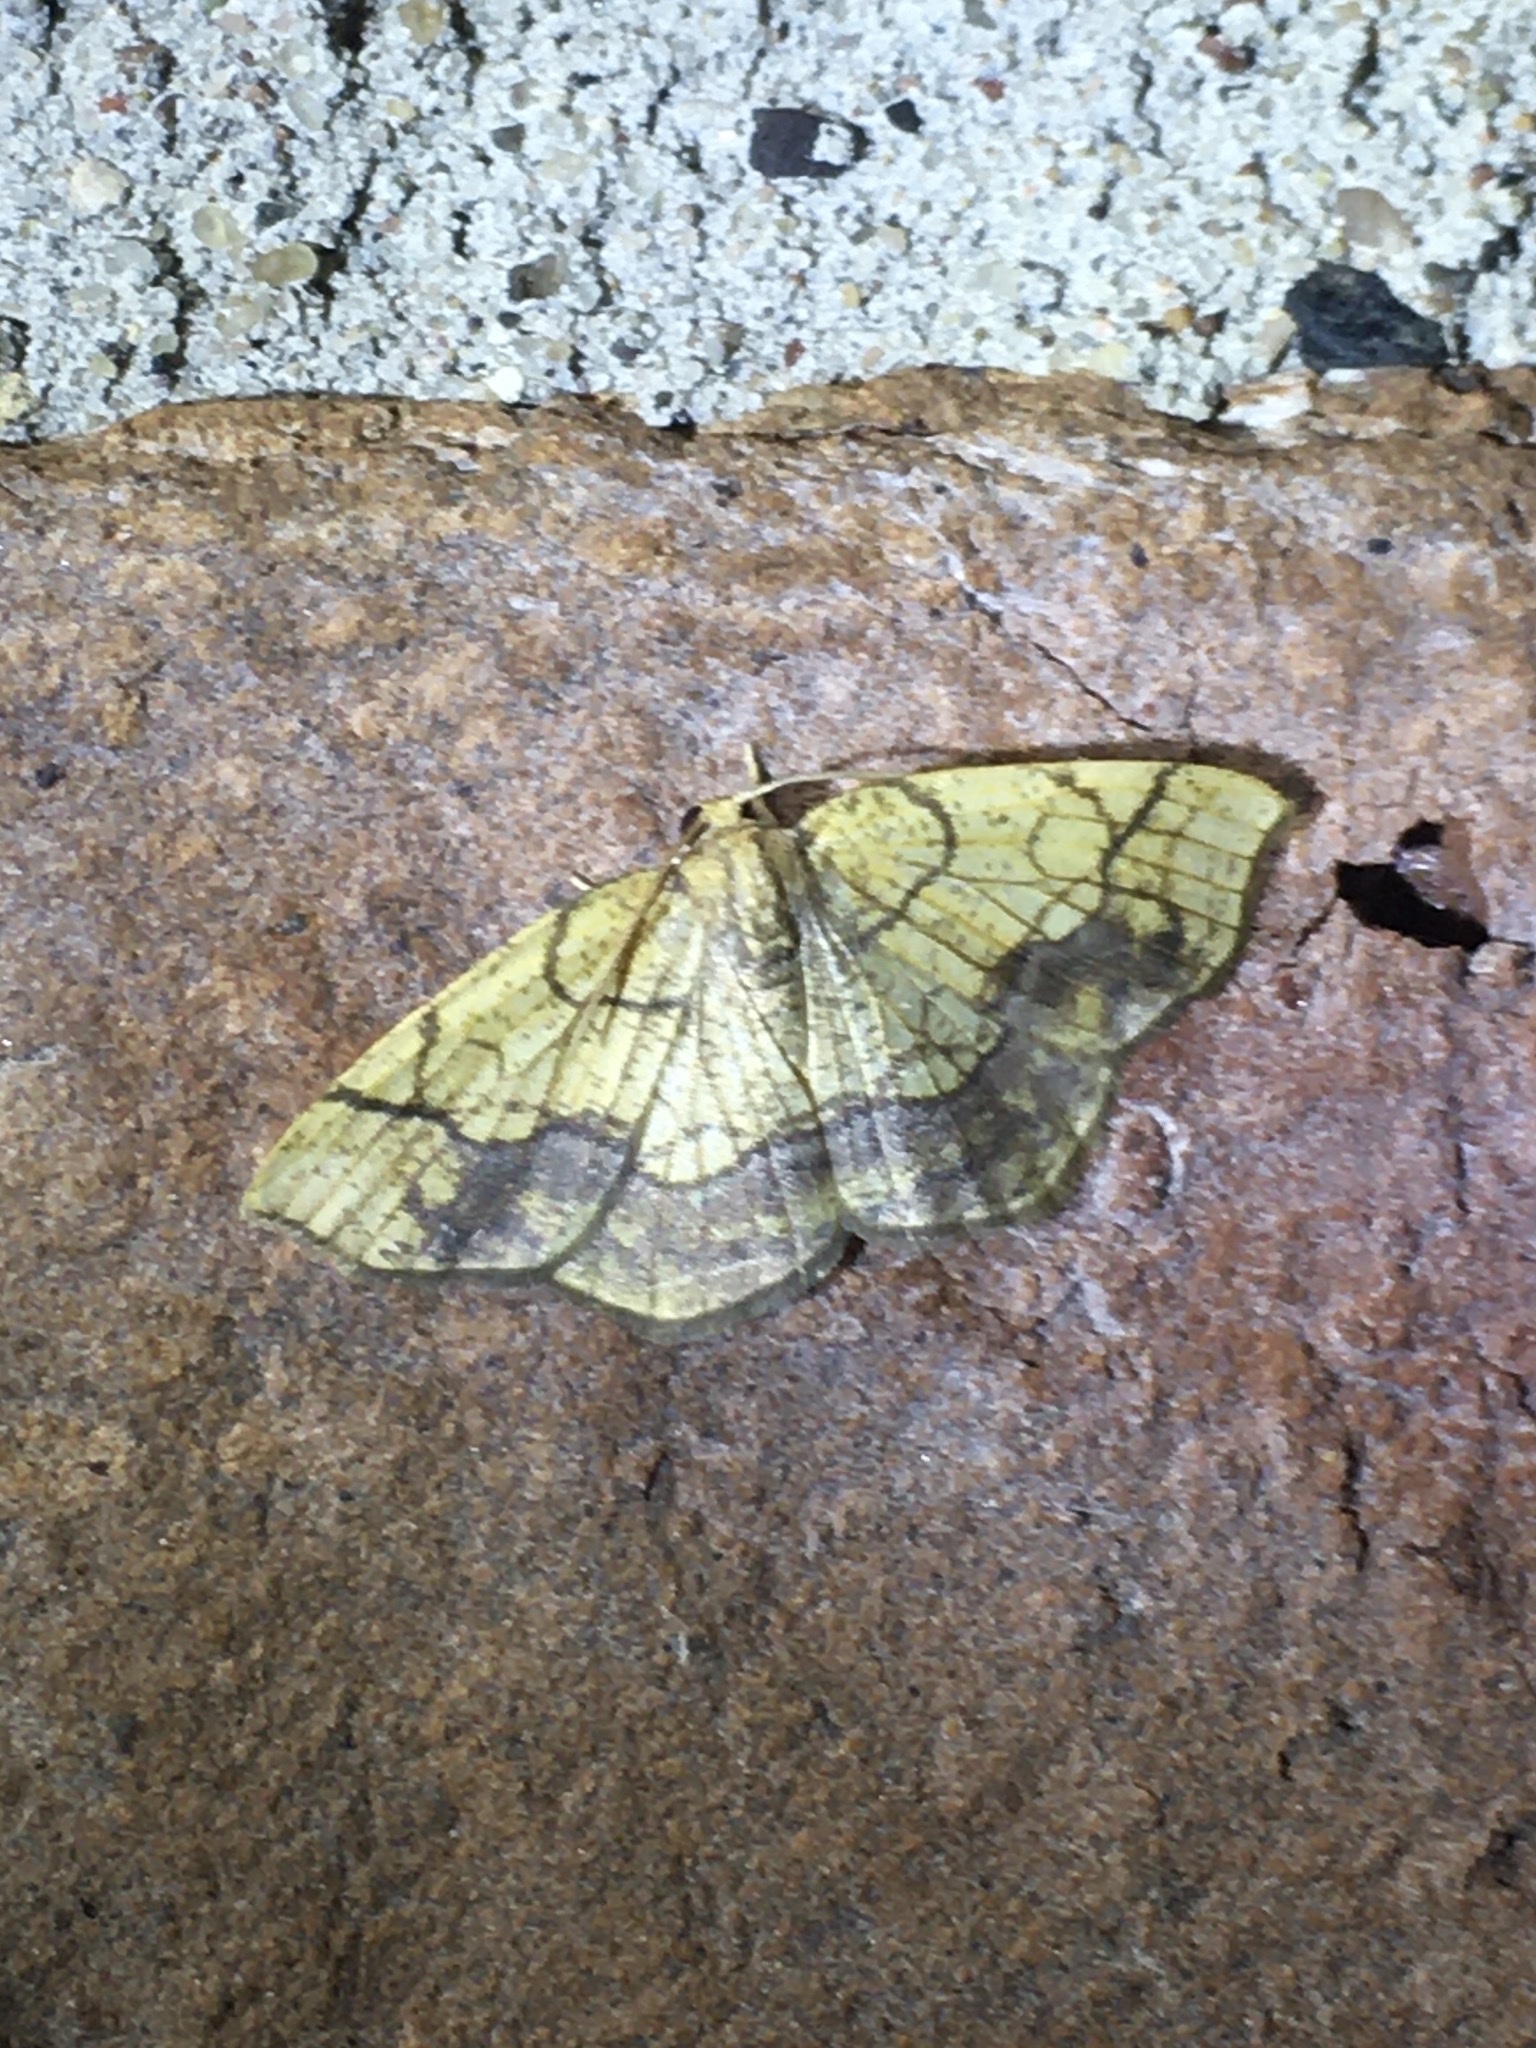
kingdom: Animalia
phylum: Arthropoda
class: Insecta
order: Lepidoptera
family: Geometridae
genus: Nematocampa
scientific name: Nematocampa resistaria
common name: Horned spanworm moth
